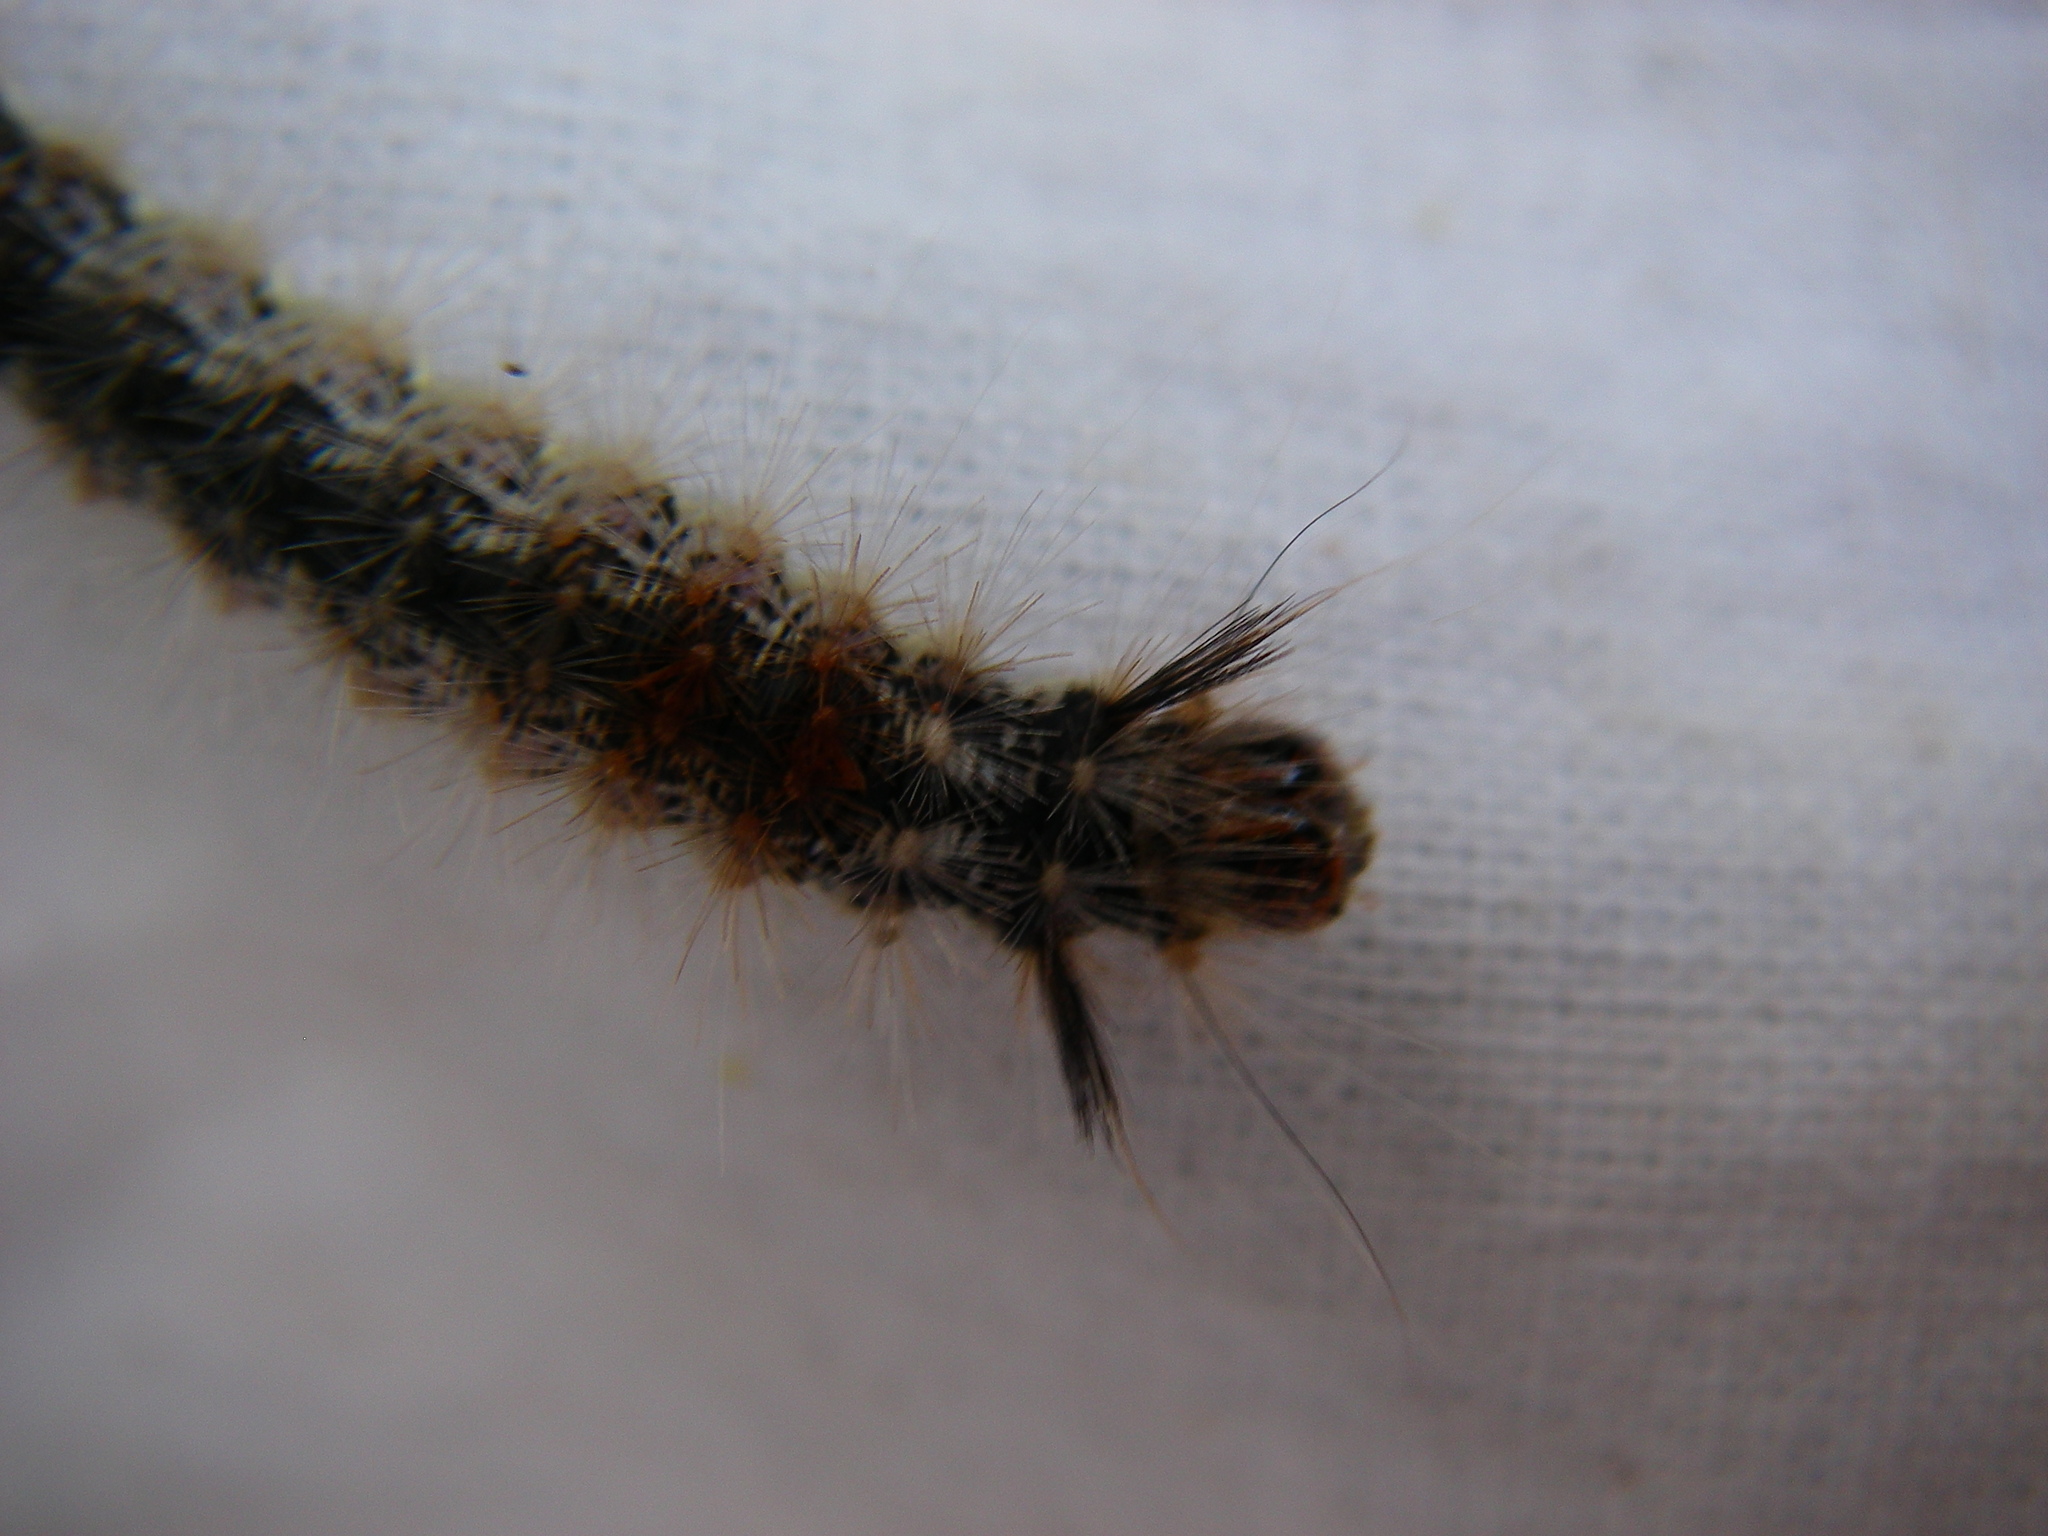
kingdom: Animalia
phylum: Arthropoda
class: Insecta
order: Lepidoptera
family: Noctuidae
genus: Colocasia
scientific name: Colocasia coryli
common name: Nut-tree tussock
